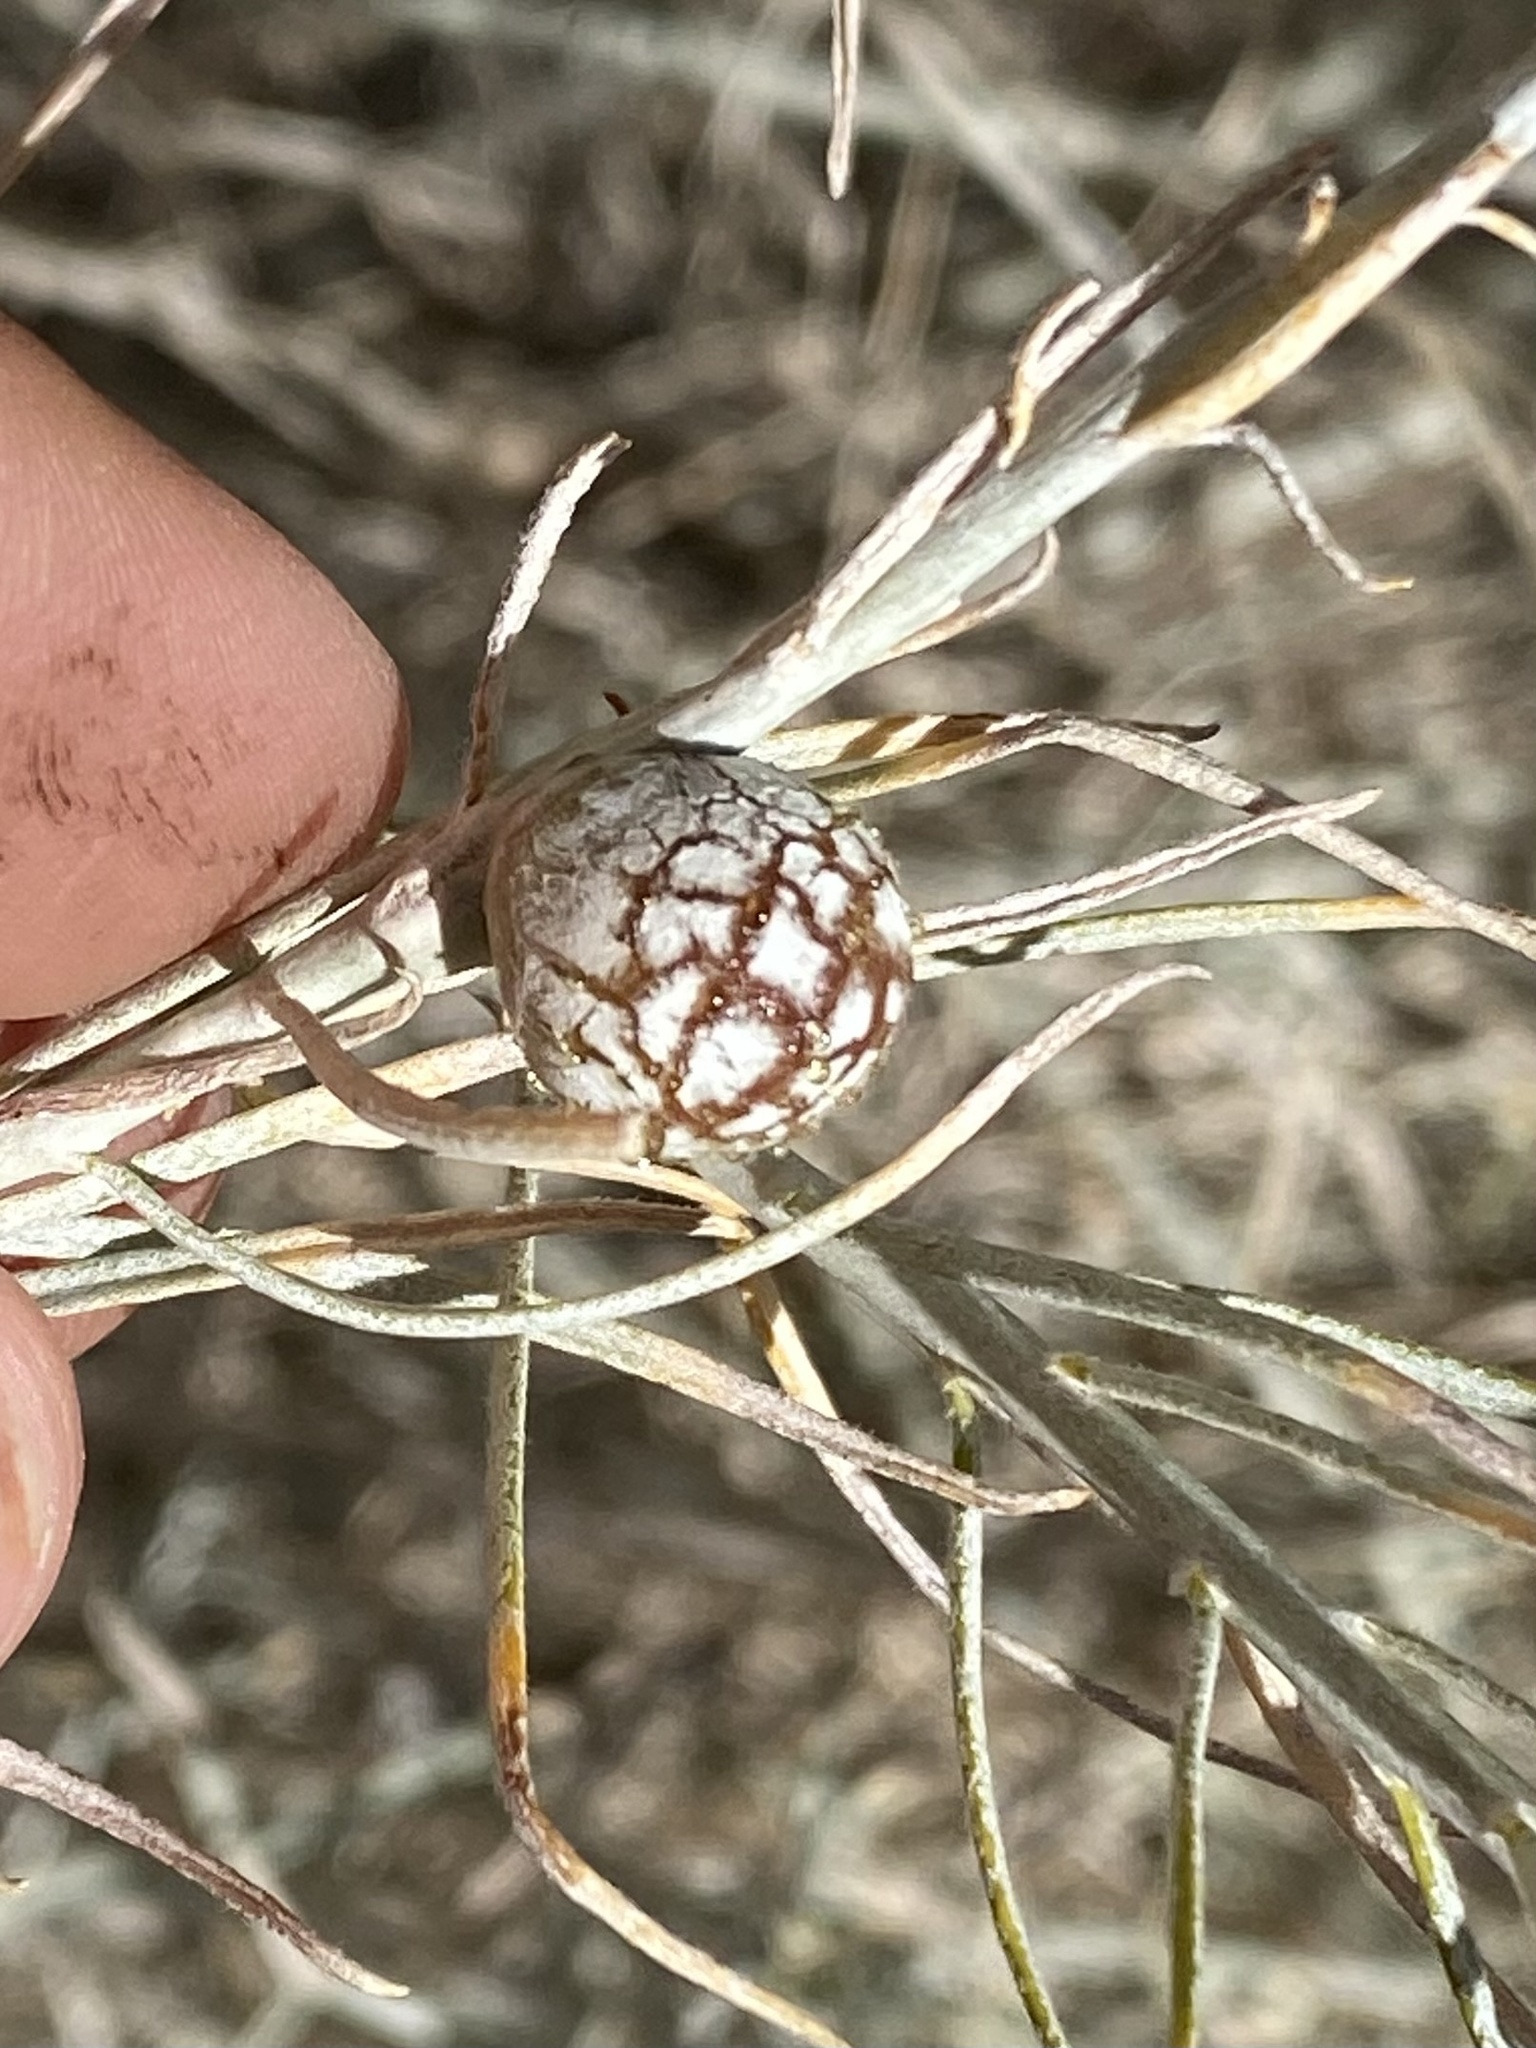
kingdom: Animalia
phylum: Arthropoda
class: Insecta
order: Diptera
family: Tephritidae
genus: Aciurina
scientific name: Aciurina trixa
